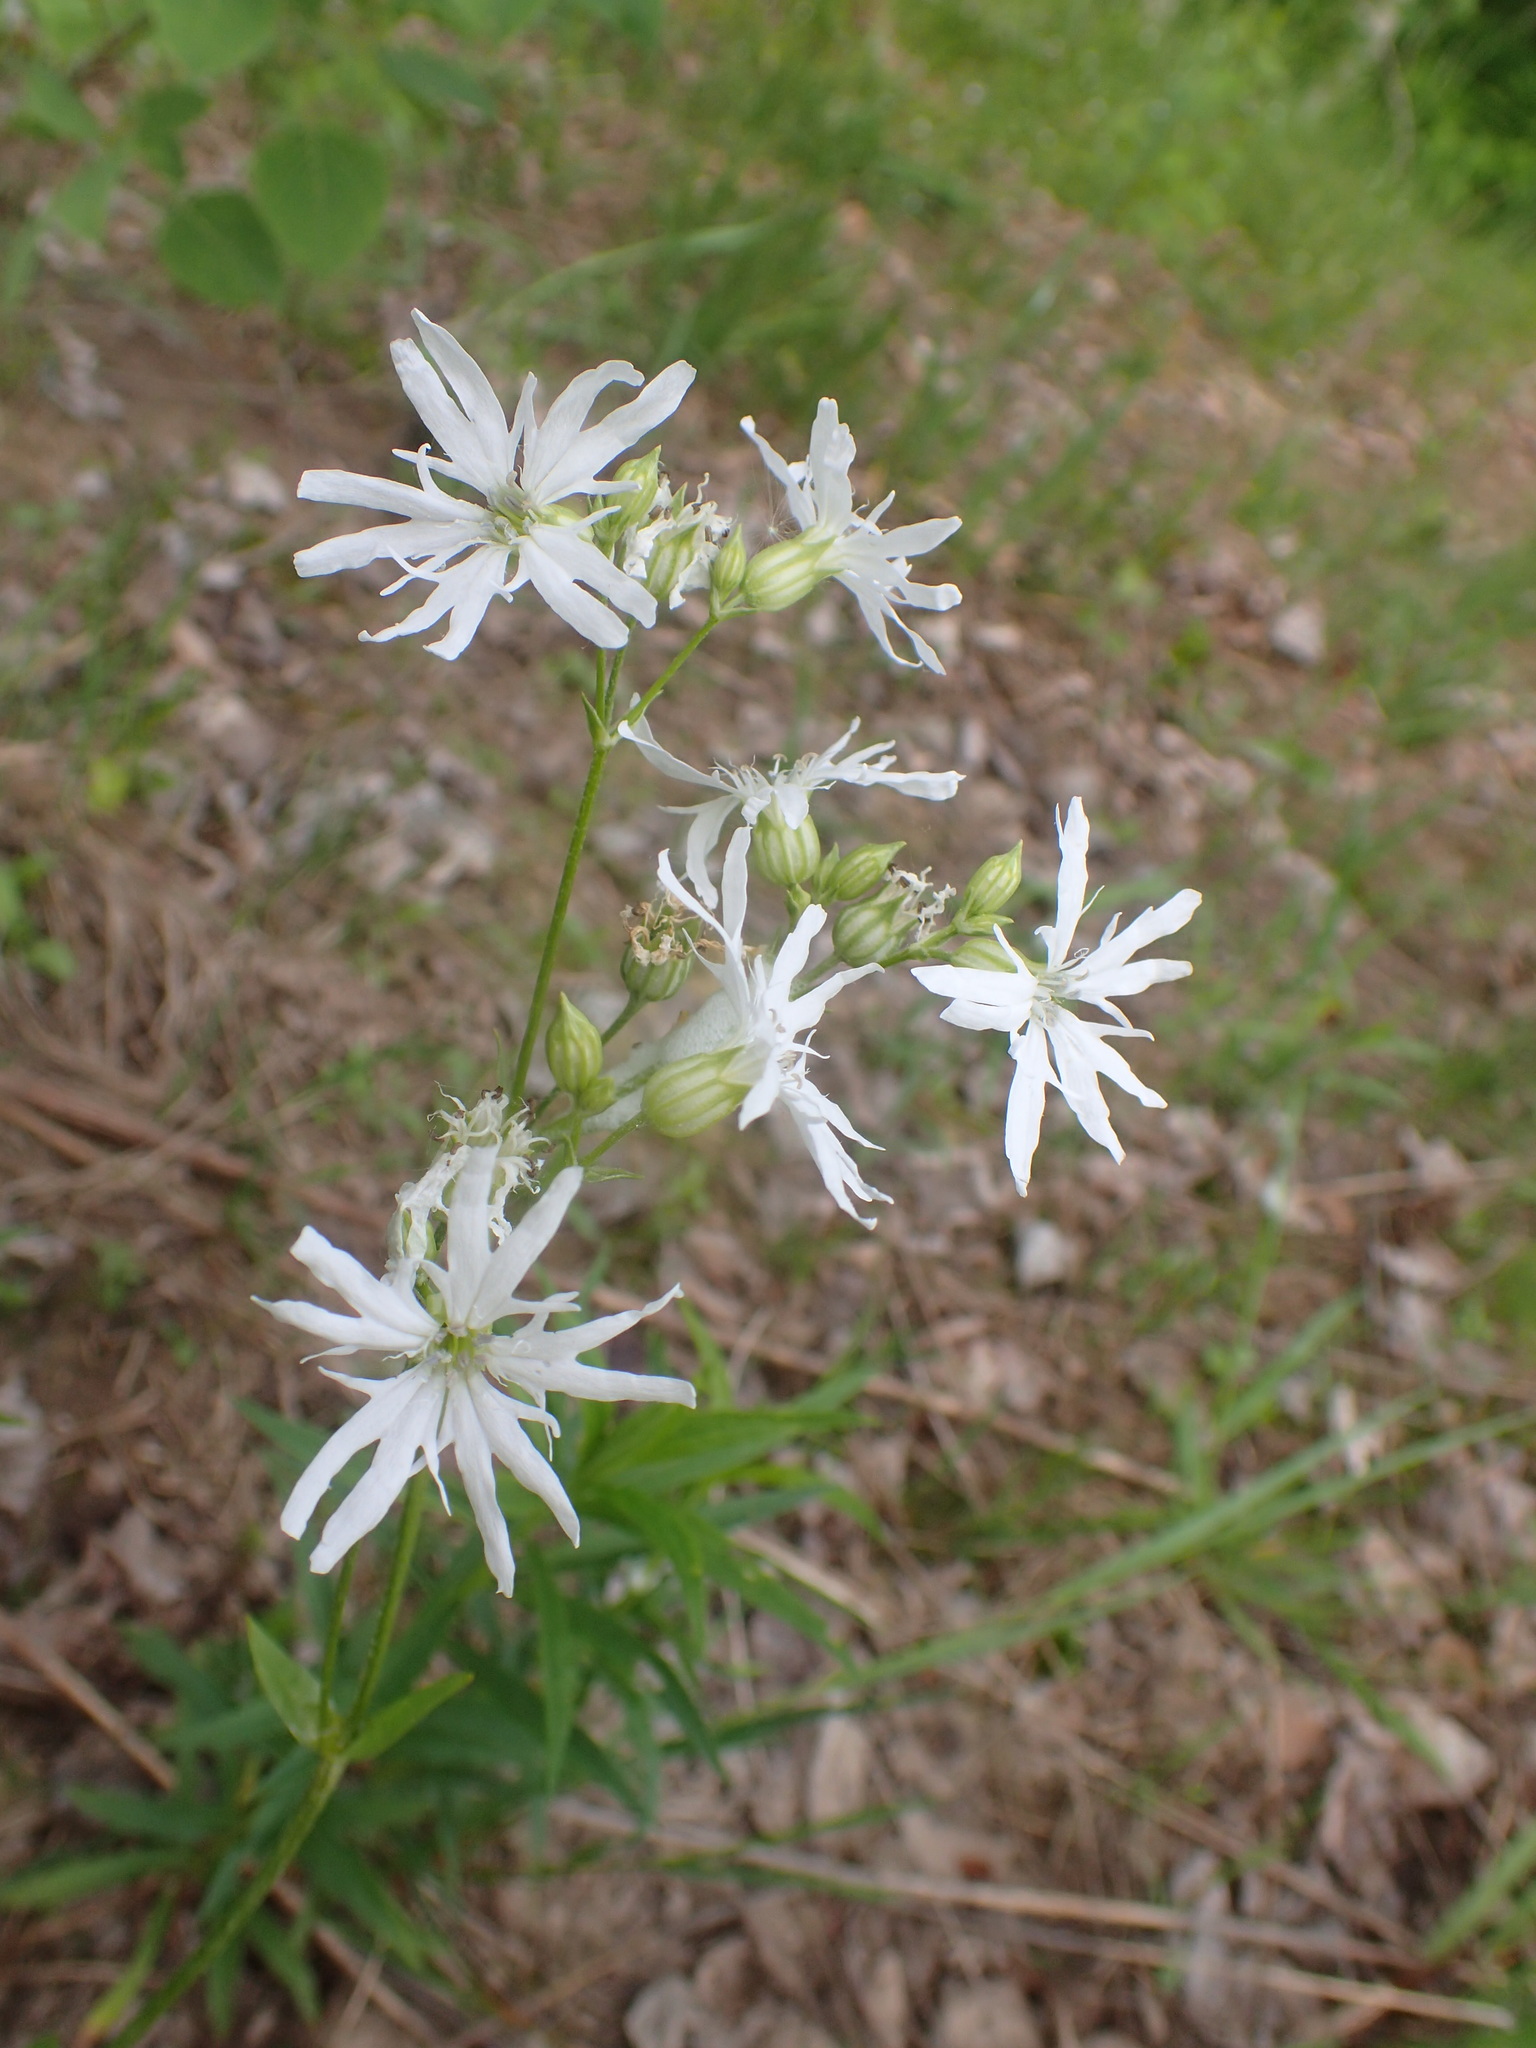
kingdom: Plantae
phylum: Tracheophyta
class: Magnoliopsida
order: Caryophyllales
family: Caryophyllaceae
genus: Silene
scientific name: Silene flos-cuculi
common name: Ragged-robin
